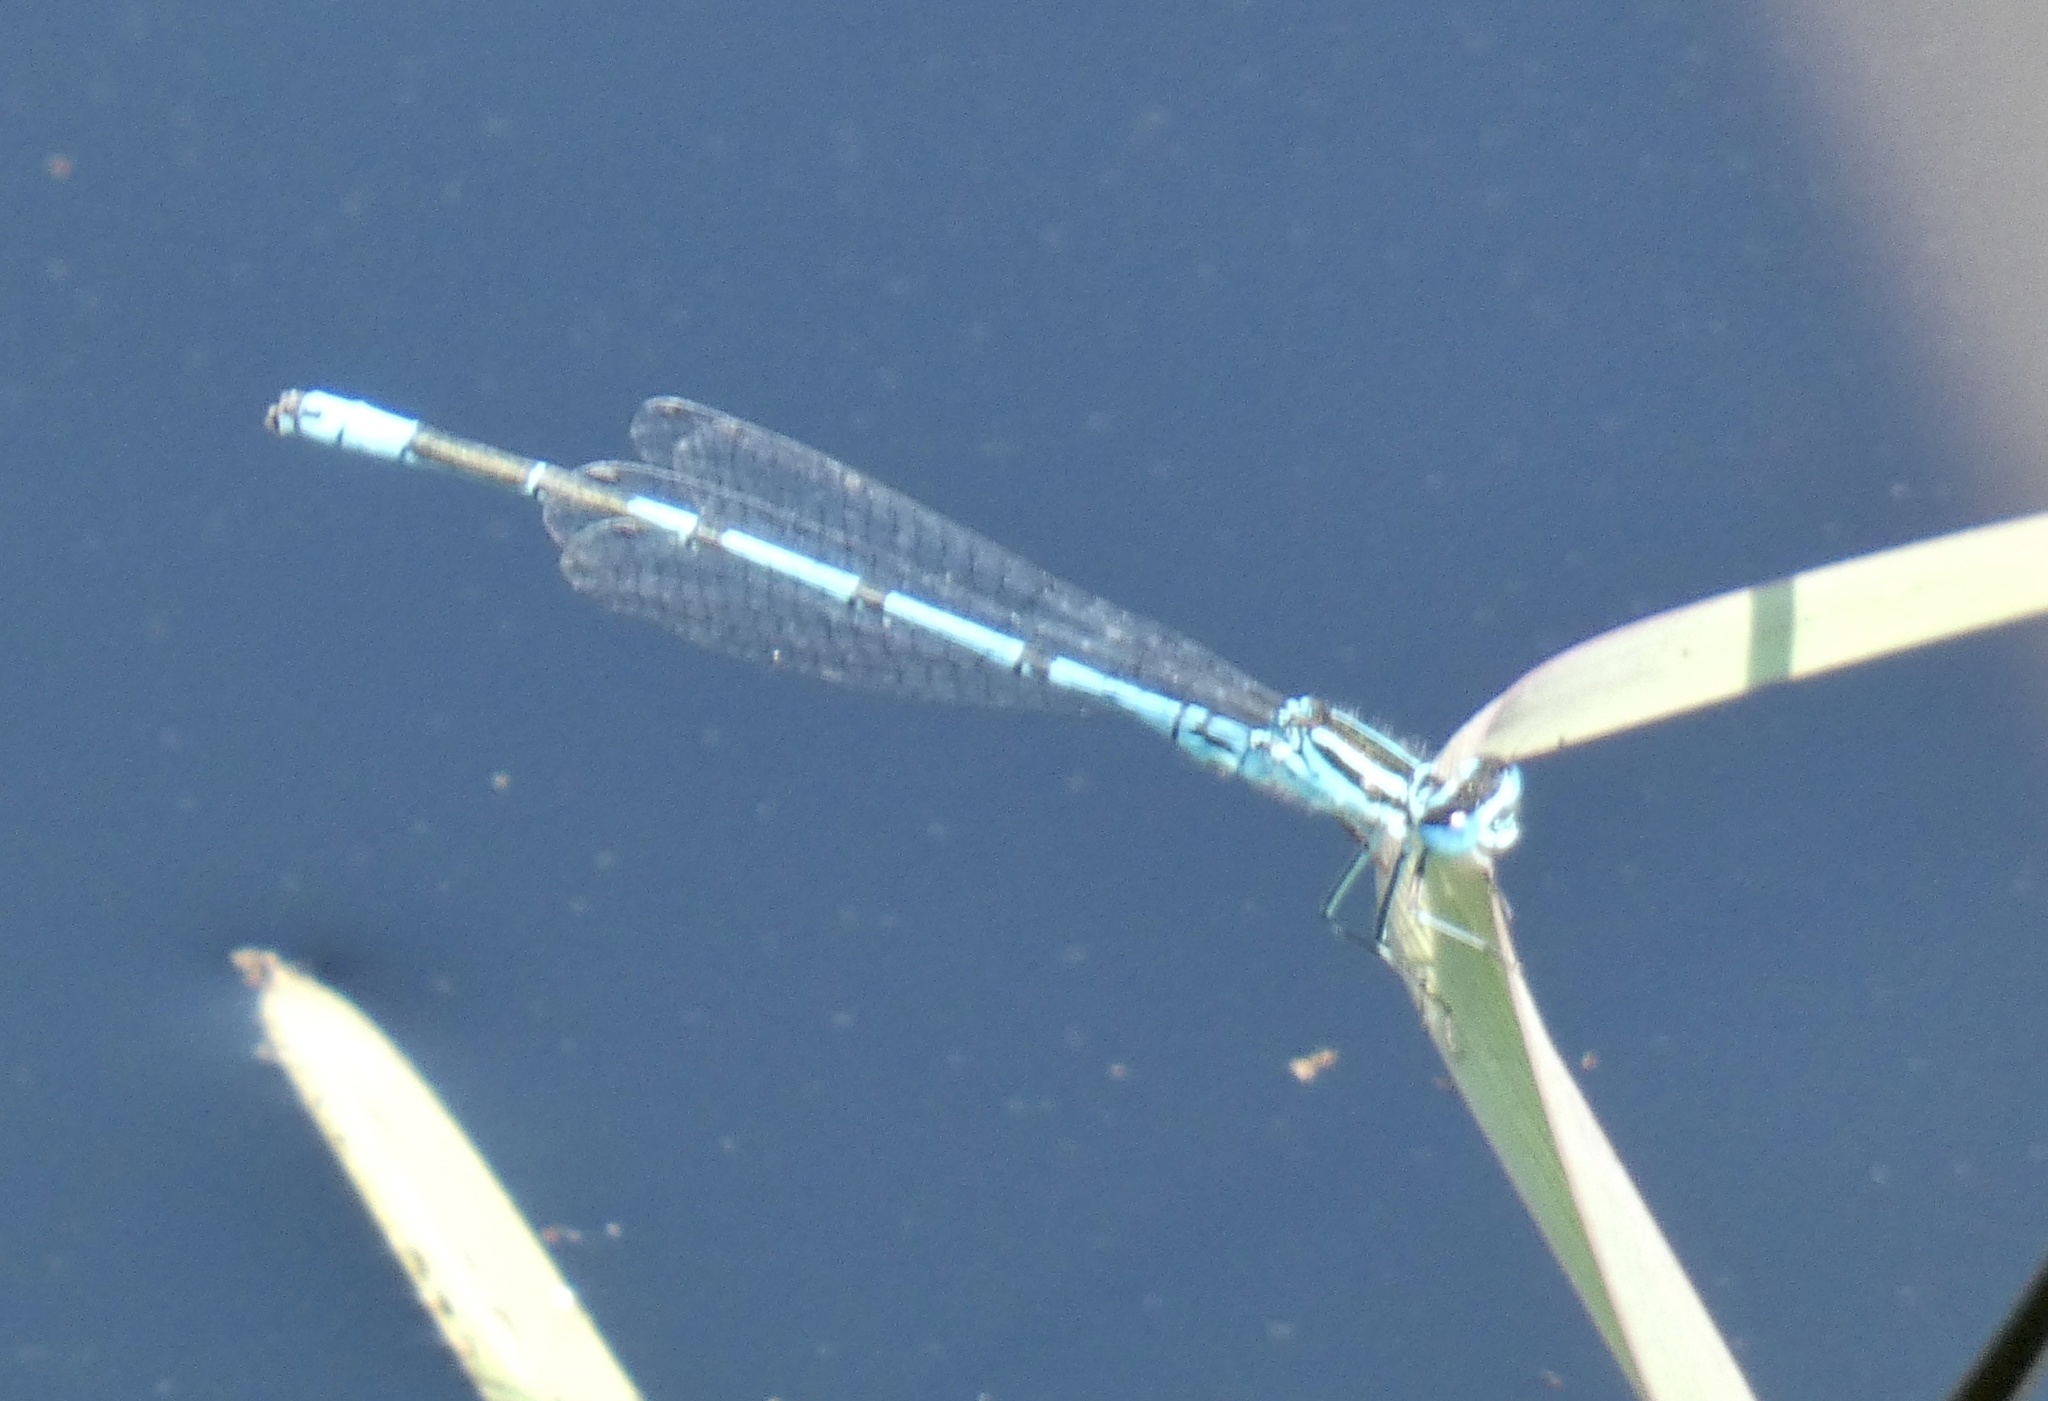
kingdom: Animalia
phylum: Arthropoda
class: Insecta
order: Odonata
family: Coenagrionidae
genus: Coenagrion
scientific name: Coenagrion puella
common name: Azure damselfly
